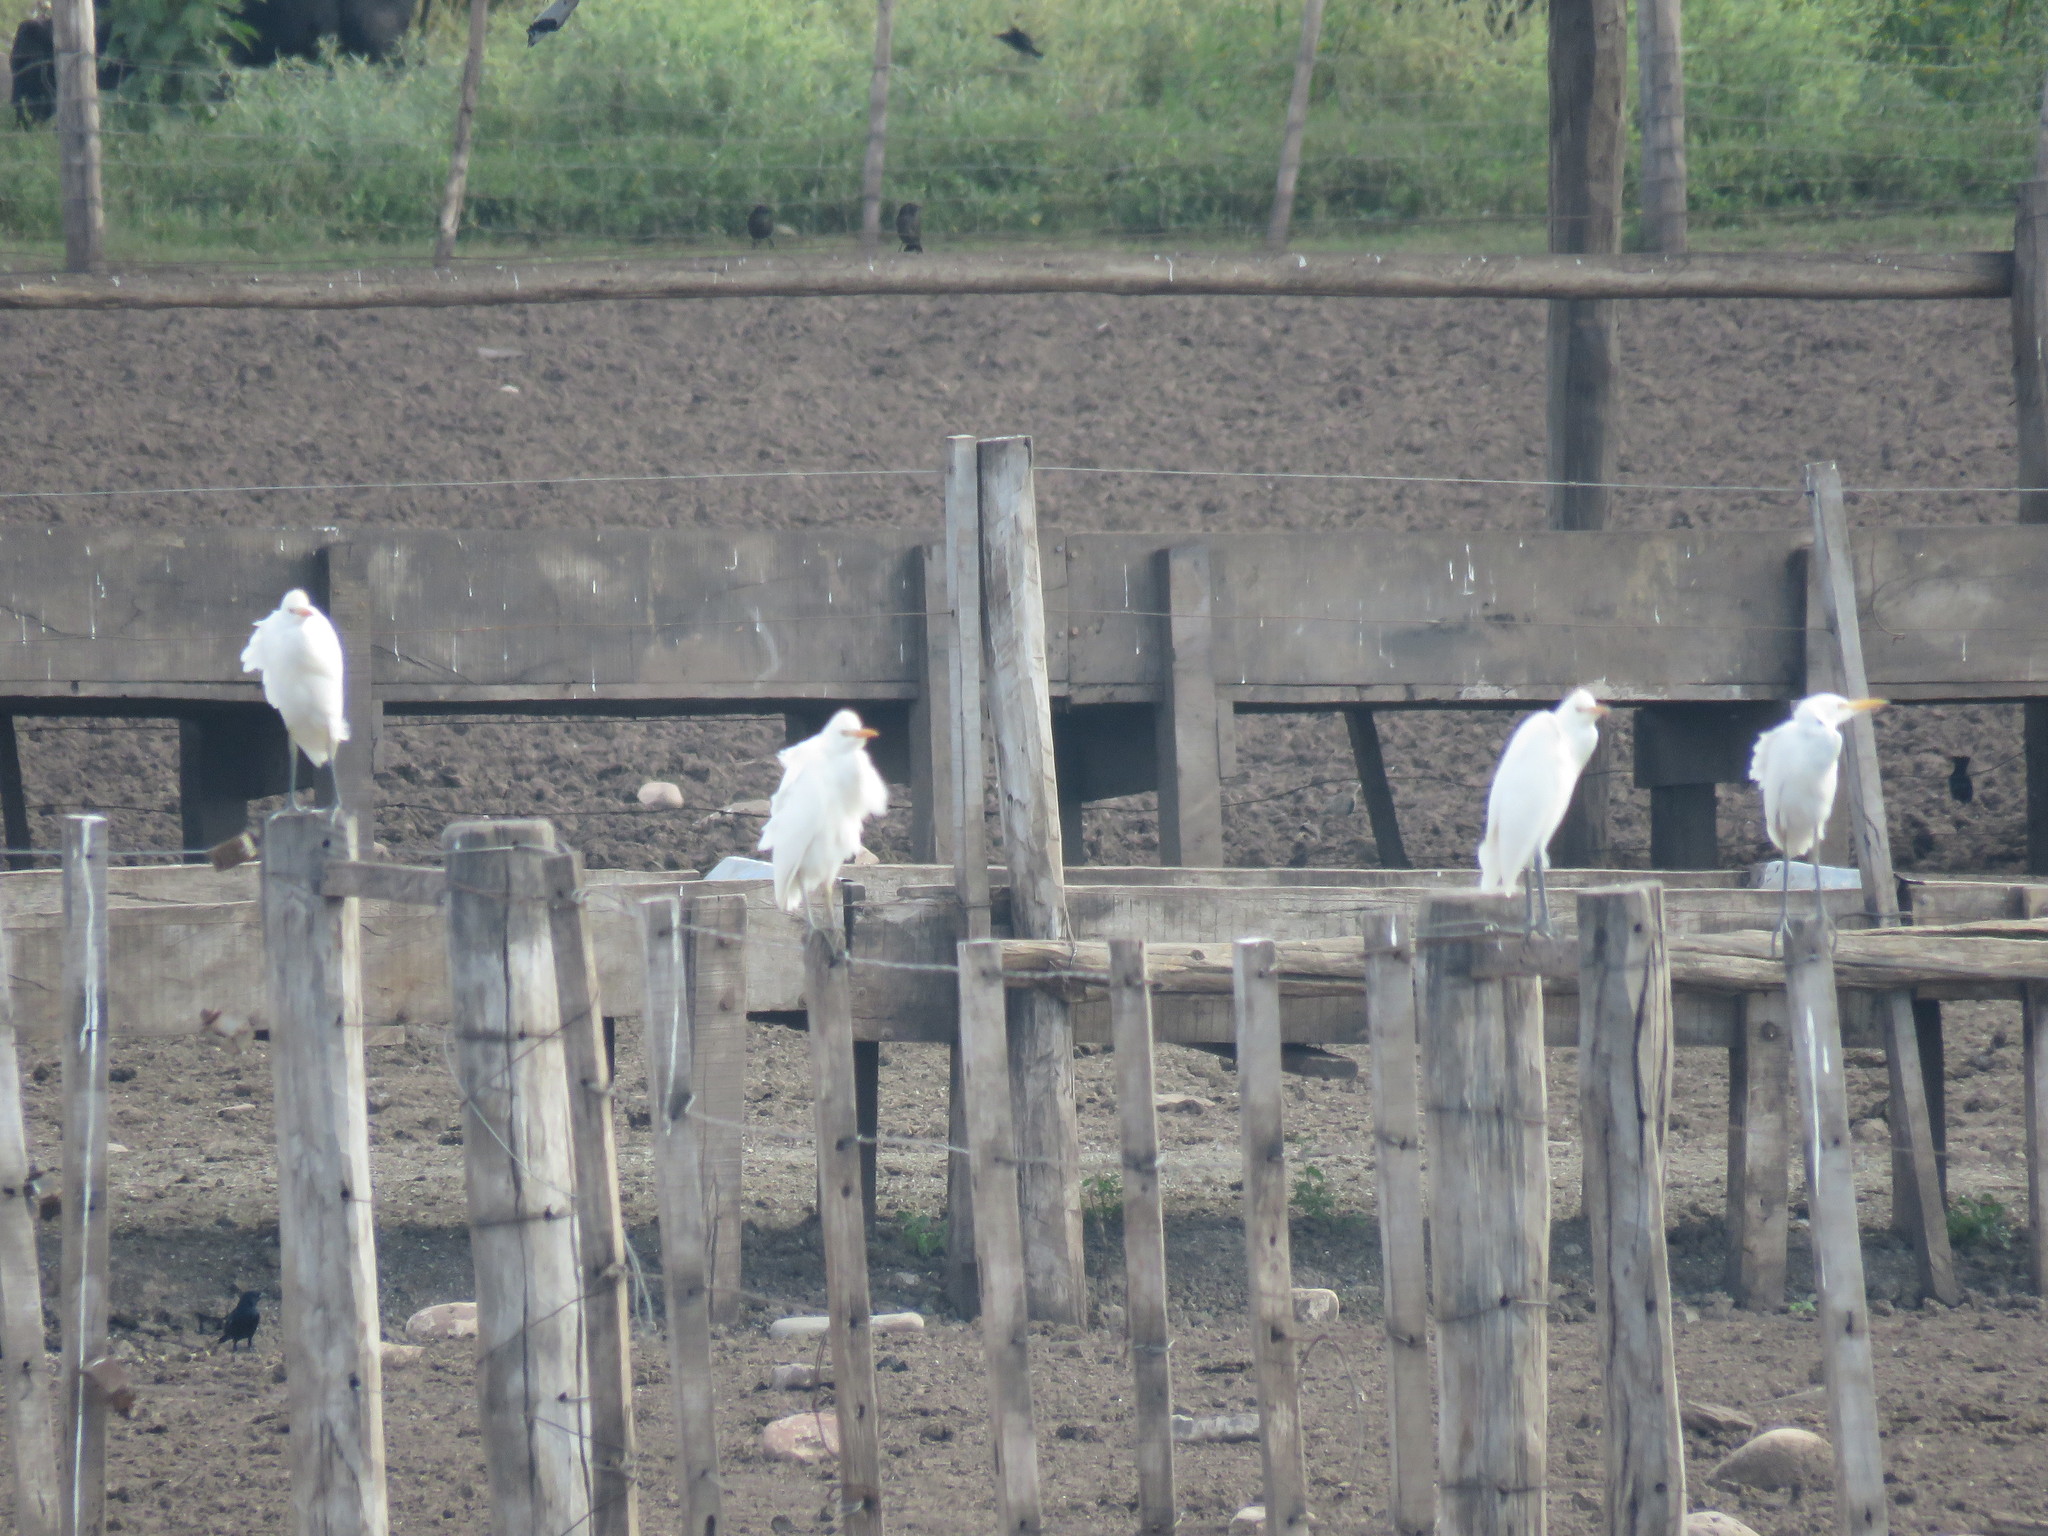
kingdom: Animalia
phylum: Chordata
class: Aves
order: Pelecaniformes
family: Ardeidae
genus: Bubulcus
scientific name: Bubulcus ibis
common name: Cattle egret
